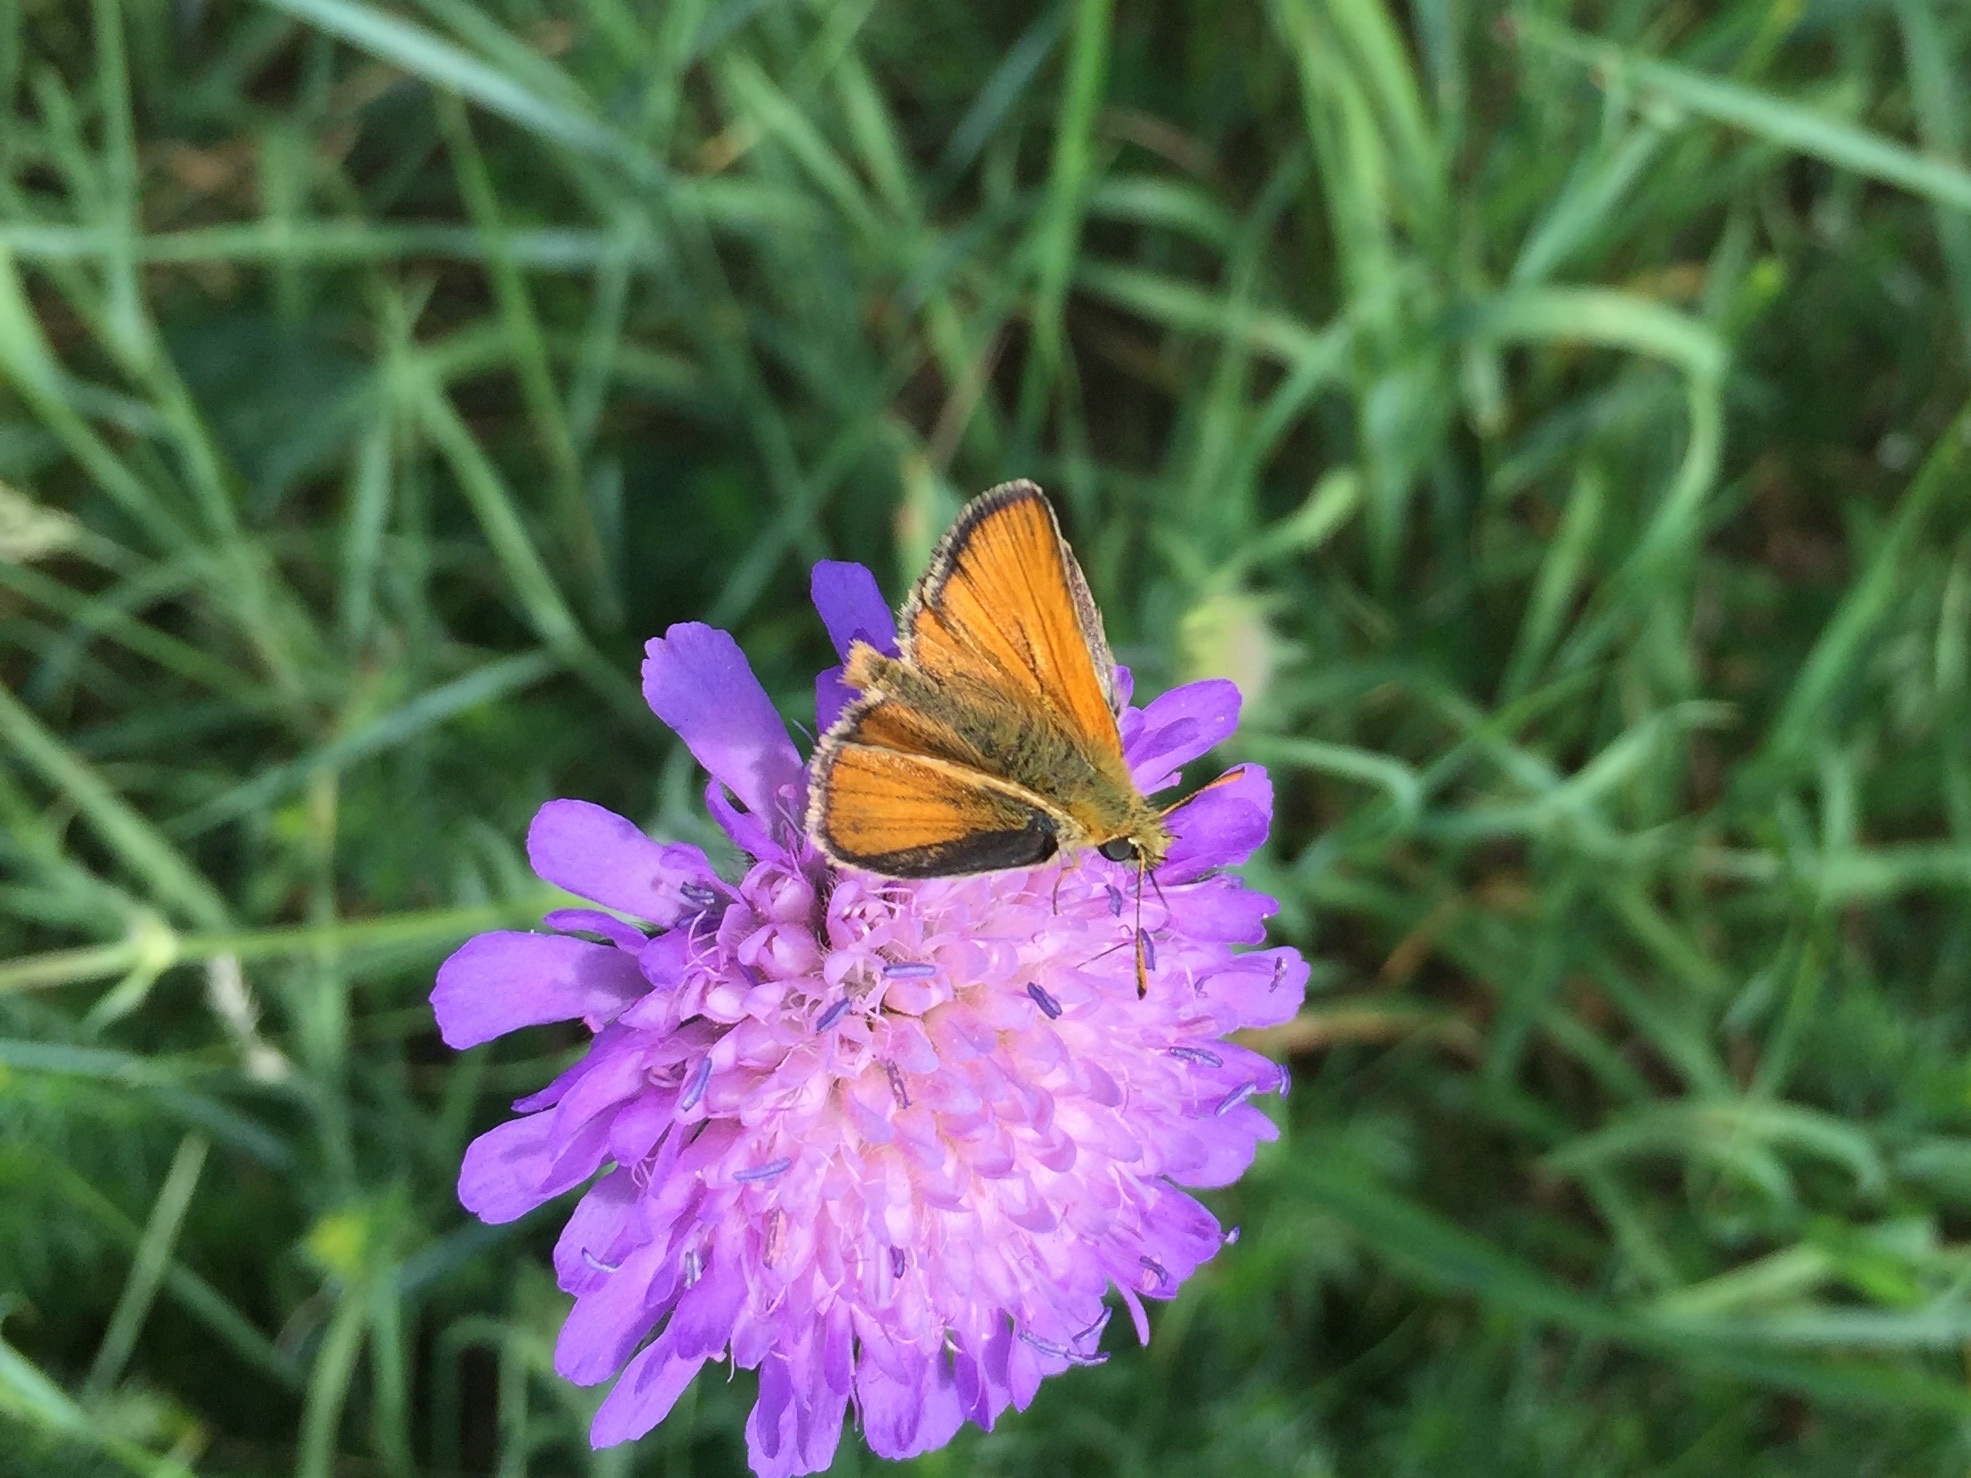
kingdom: Animalia
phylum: Arthropoda
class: Insecta
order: Lepidoptera
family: Hesperiidae
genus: Thymelicus
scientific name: Thymelicus sylvestris
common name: Small skipper
